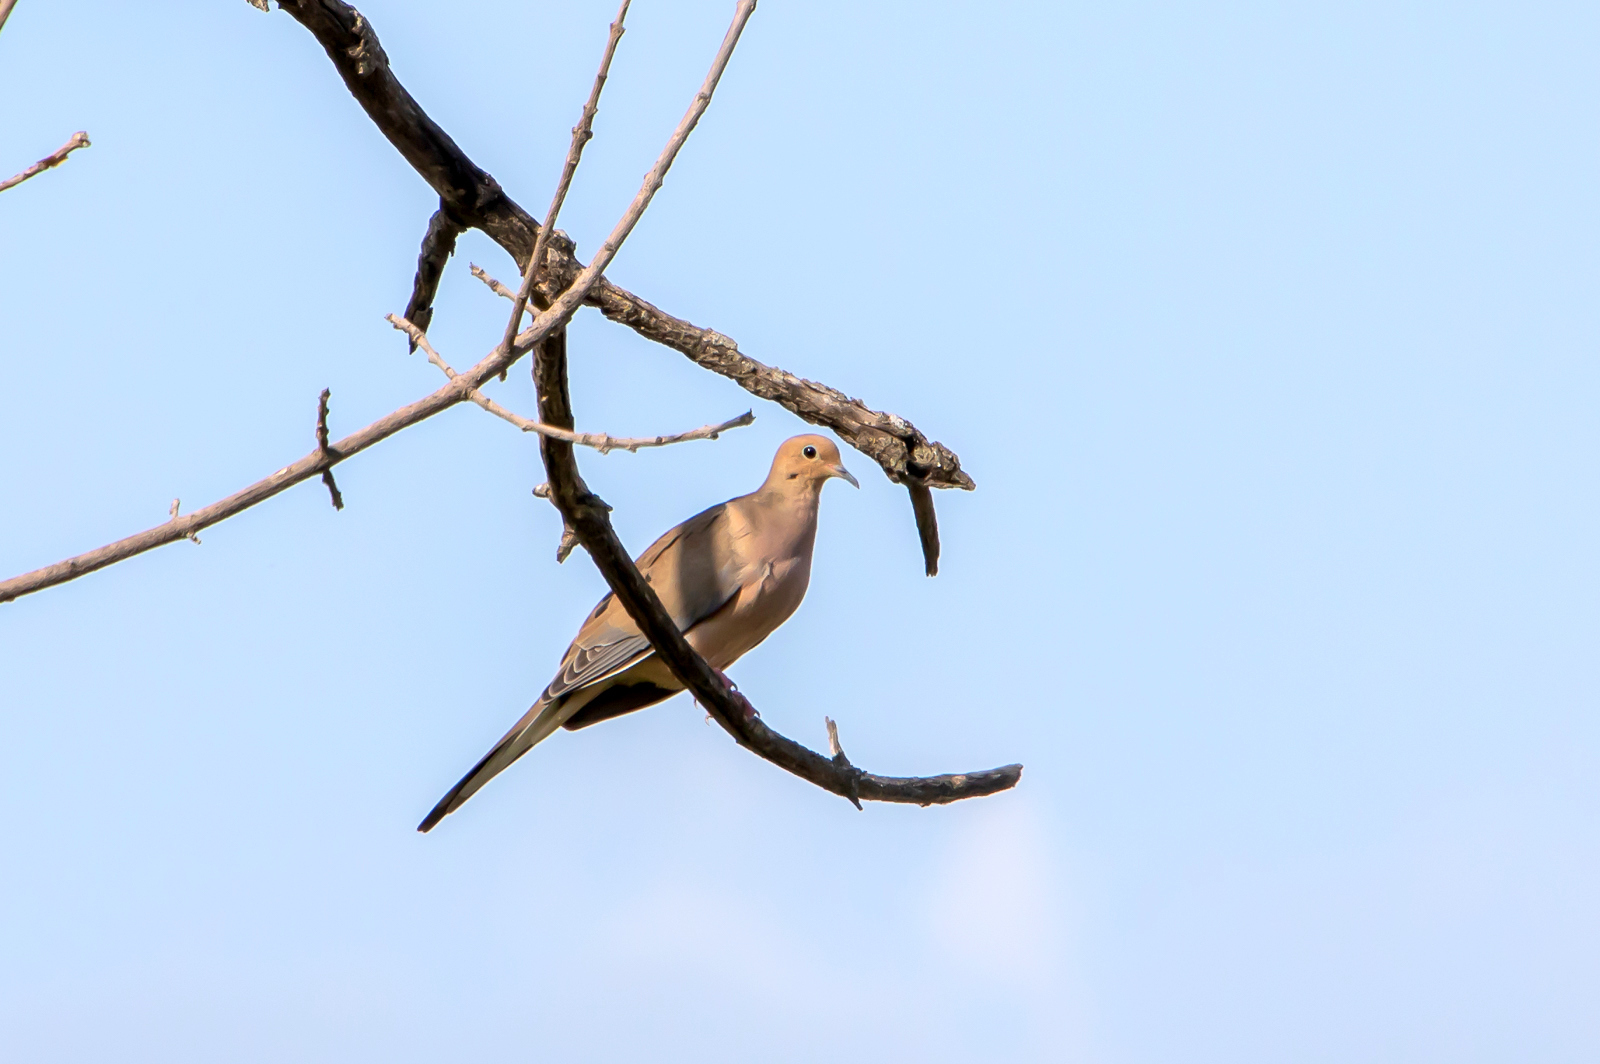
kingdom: Animalia
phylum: Chordata
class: Aves
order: Columbiformes
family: Columbidae
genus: Zenaida
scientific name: Zenaida macroura
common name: Mourning dove
